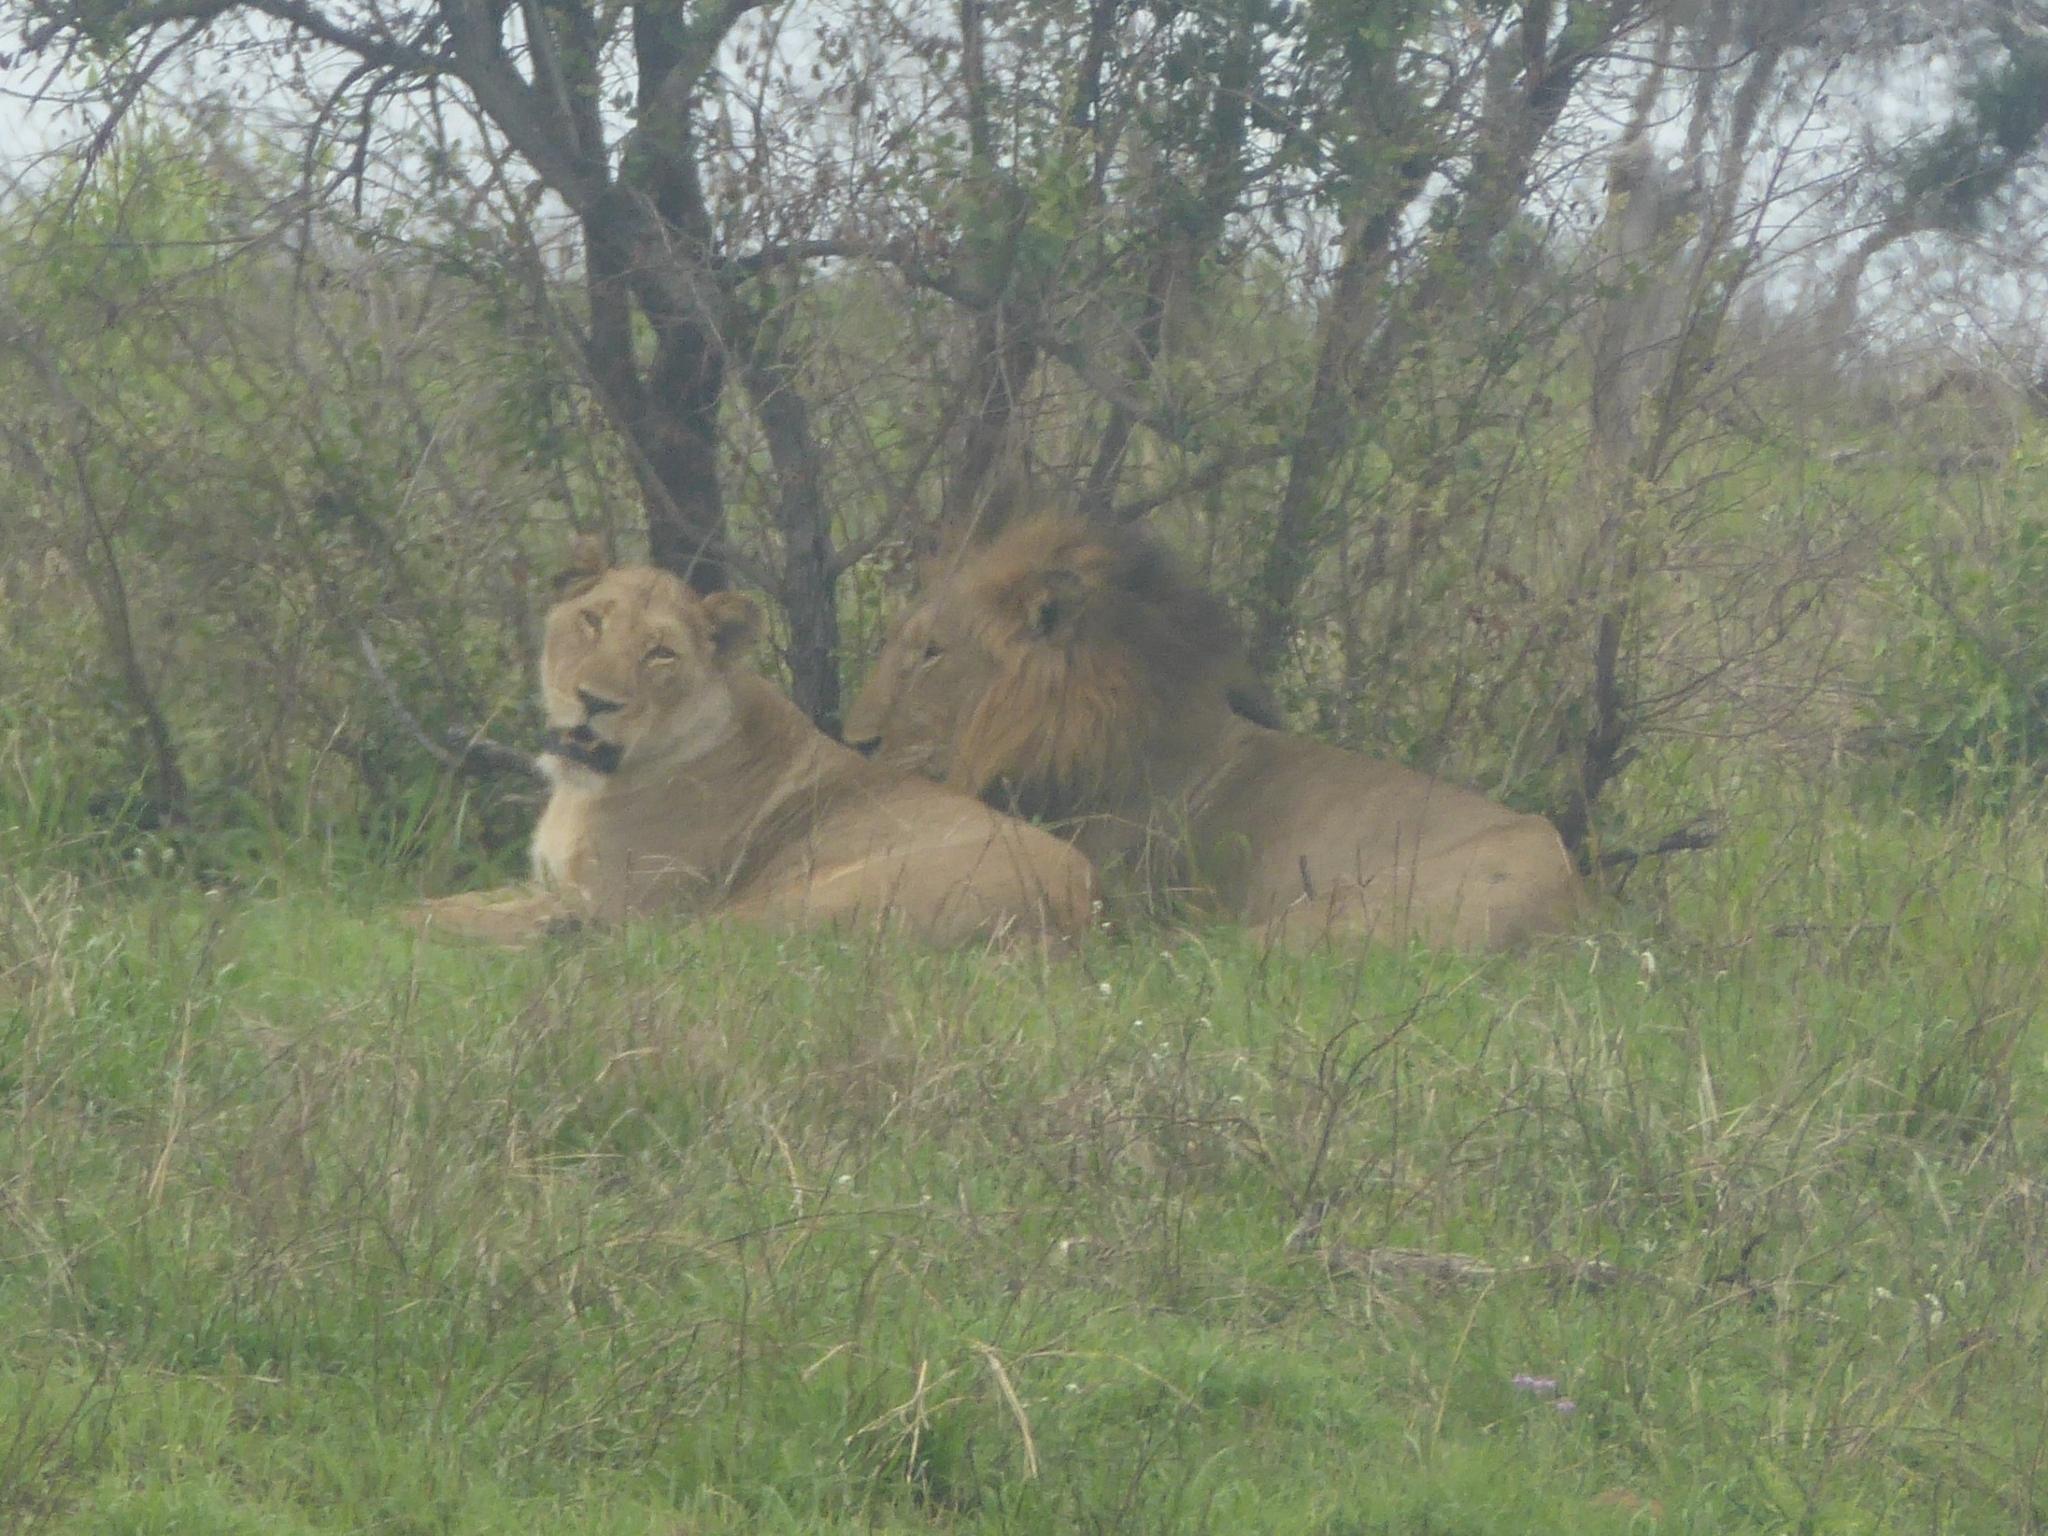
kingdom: Animalia
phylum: Chordata
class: Mammalia
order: Carnivora
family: Felidae
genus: Panthera
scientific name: Panthera leo
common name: Lion
